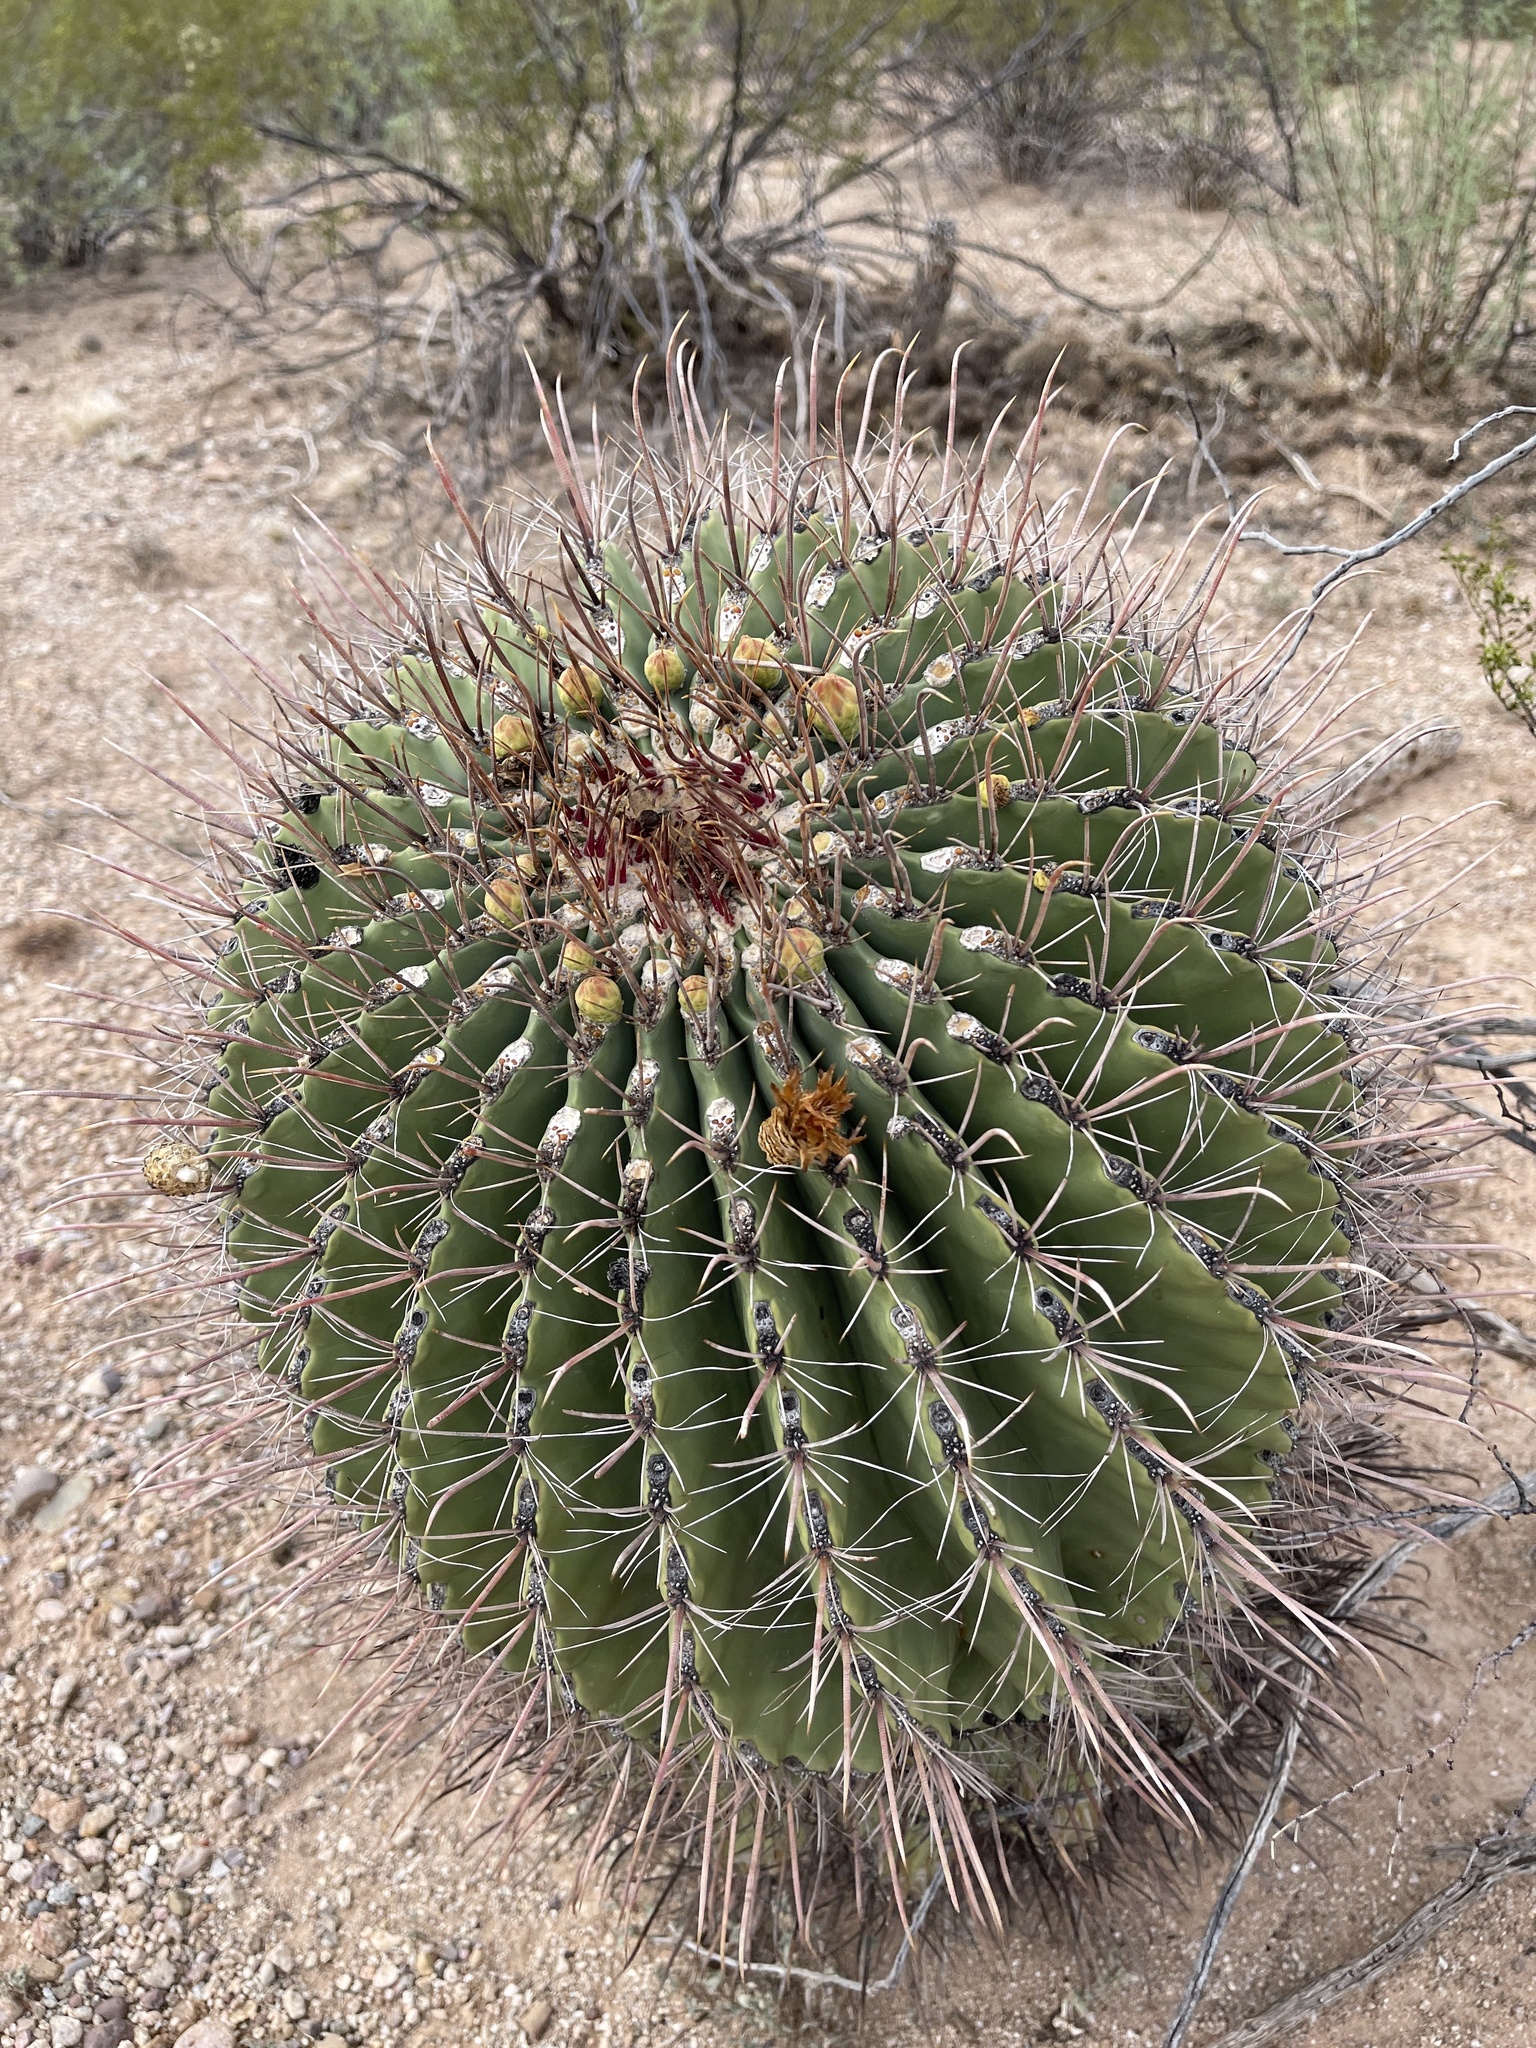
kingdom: Plantae
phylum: Tracheophyta
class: Magnoliopsida
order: Caryophyllales
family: Cactaceae
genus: Ferocactus
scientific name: Ferocactus wislizeni
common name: Candy barrel cactus
